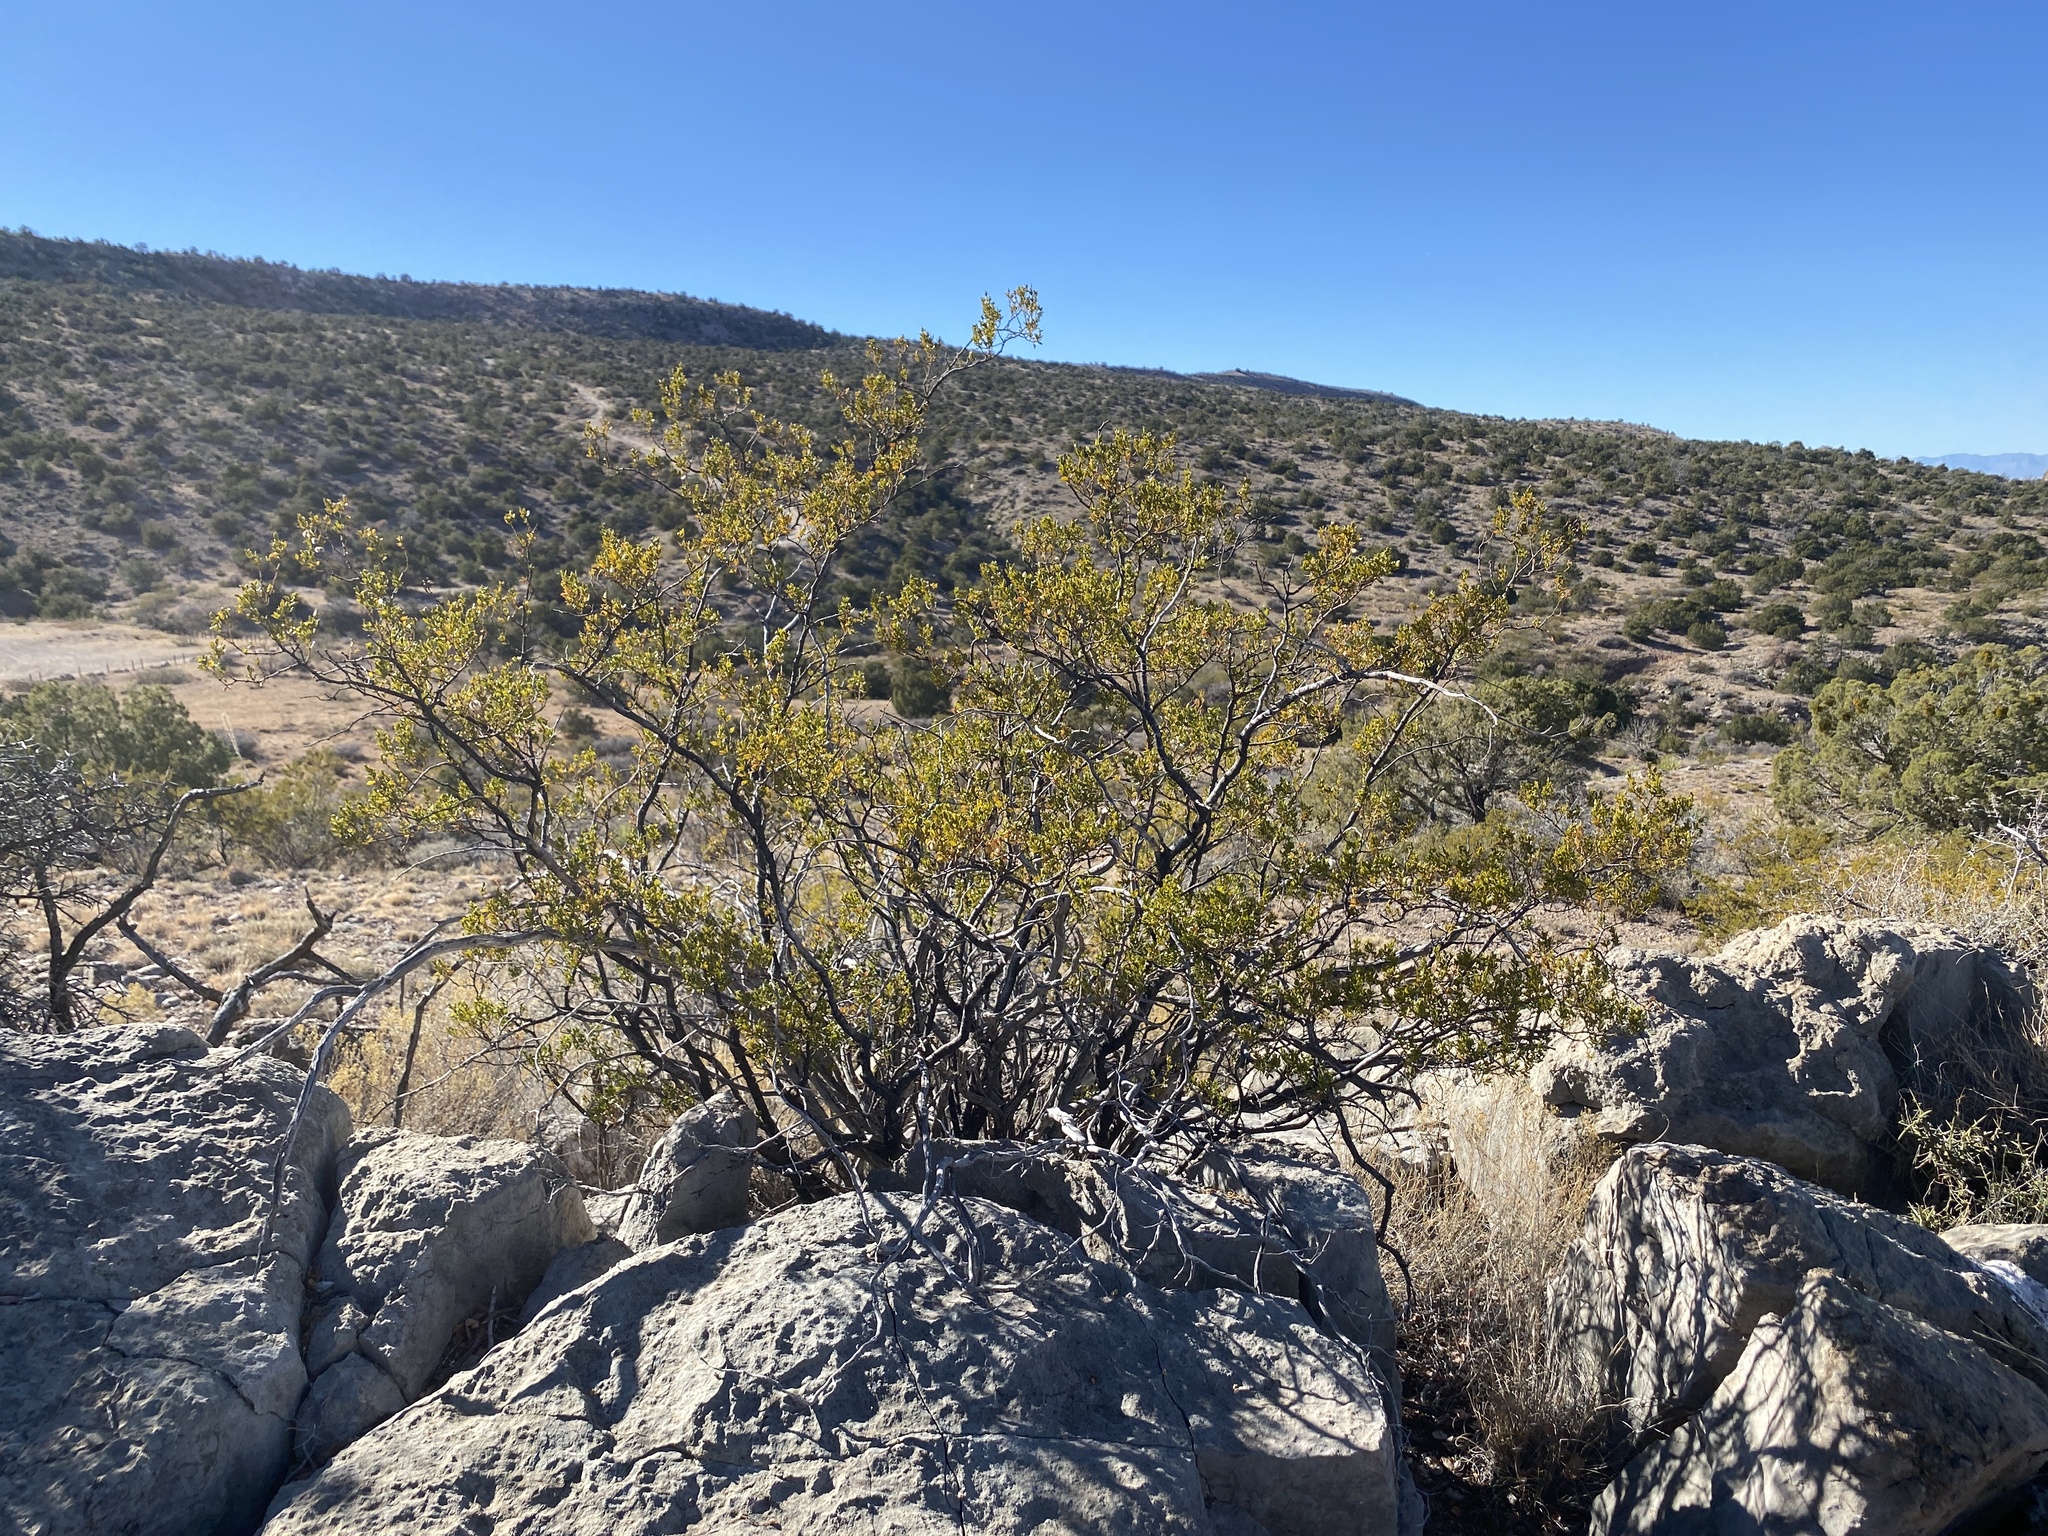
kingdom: Plantae
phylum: Tracheophyta
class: Magnoliopsida
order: Zygophyllales
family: Zygophyllaceae
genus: Larrea
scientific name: Larrea tridentata
